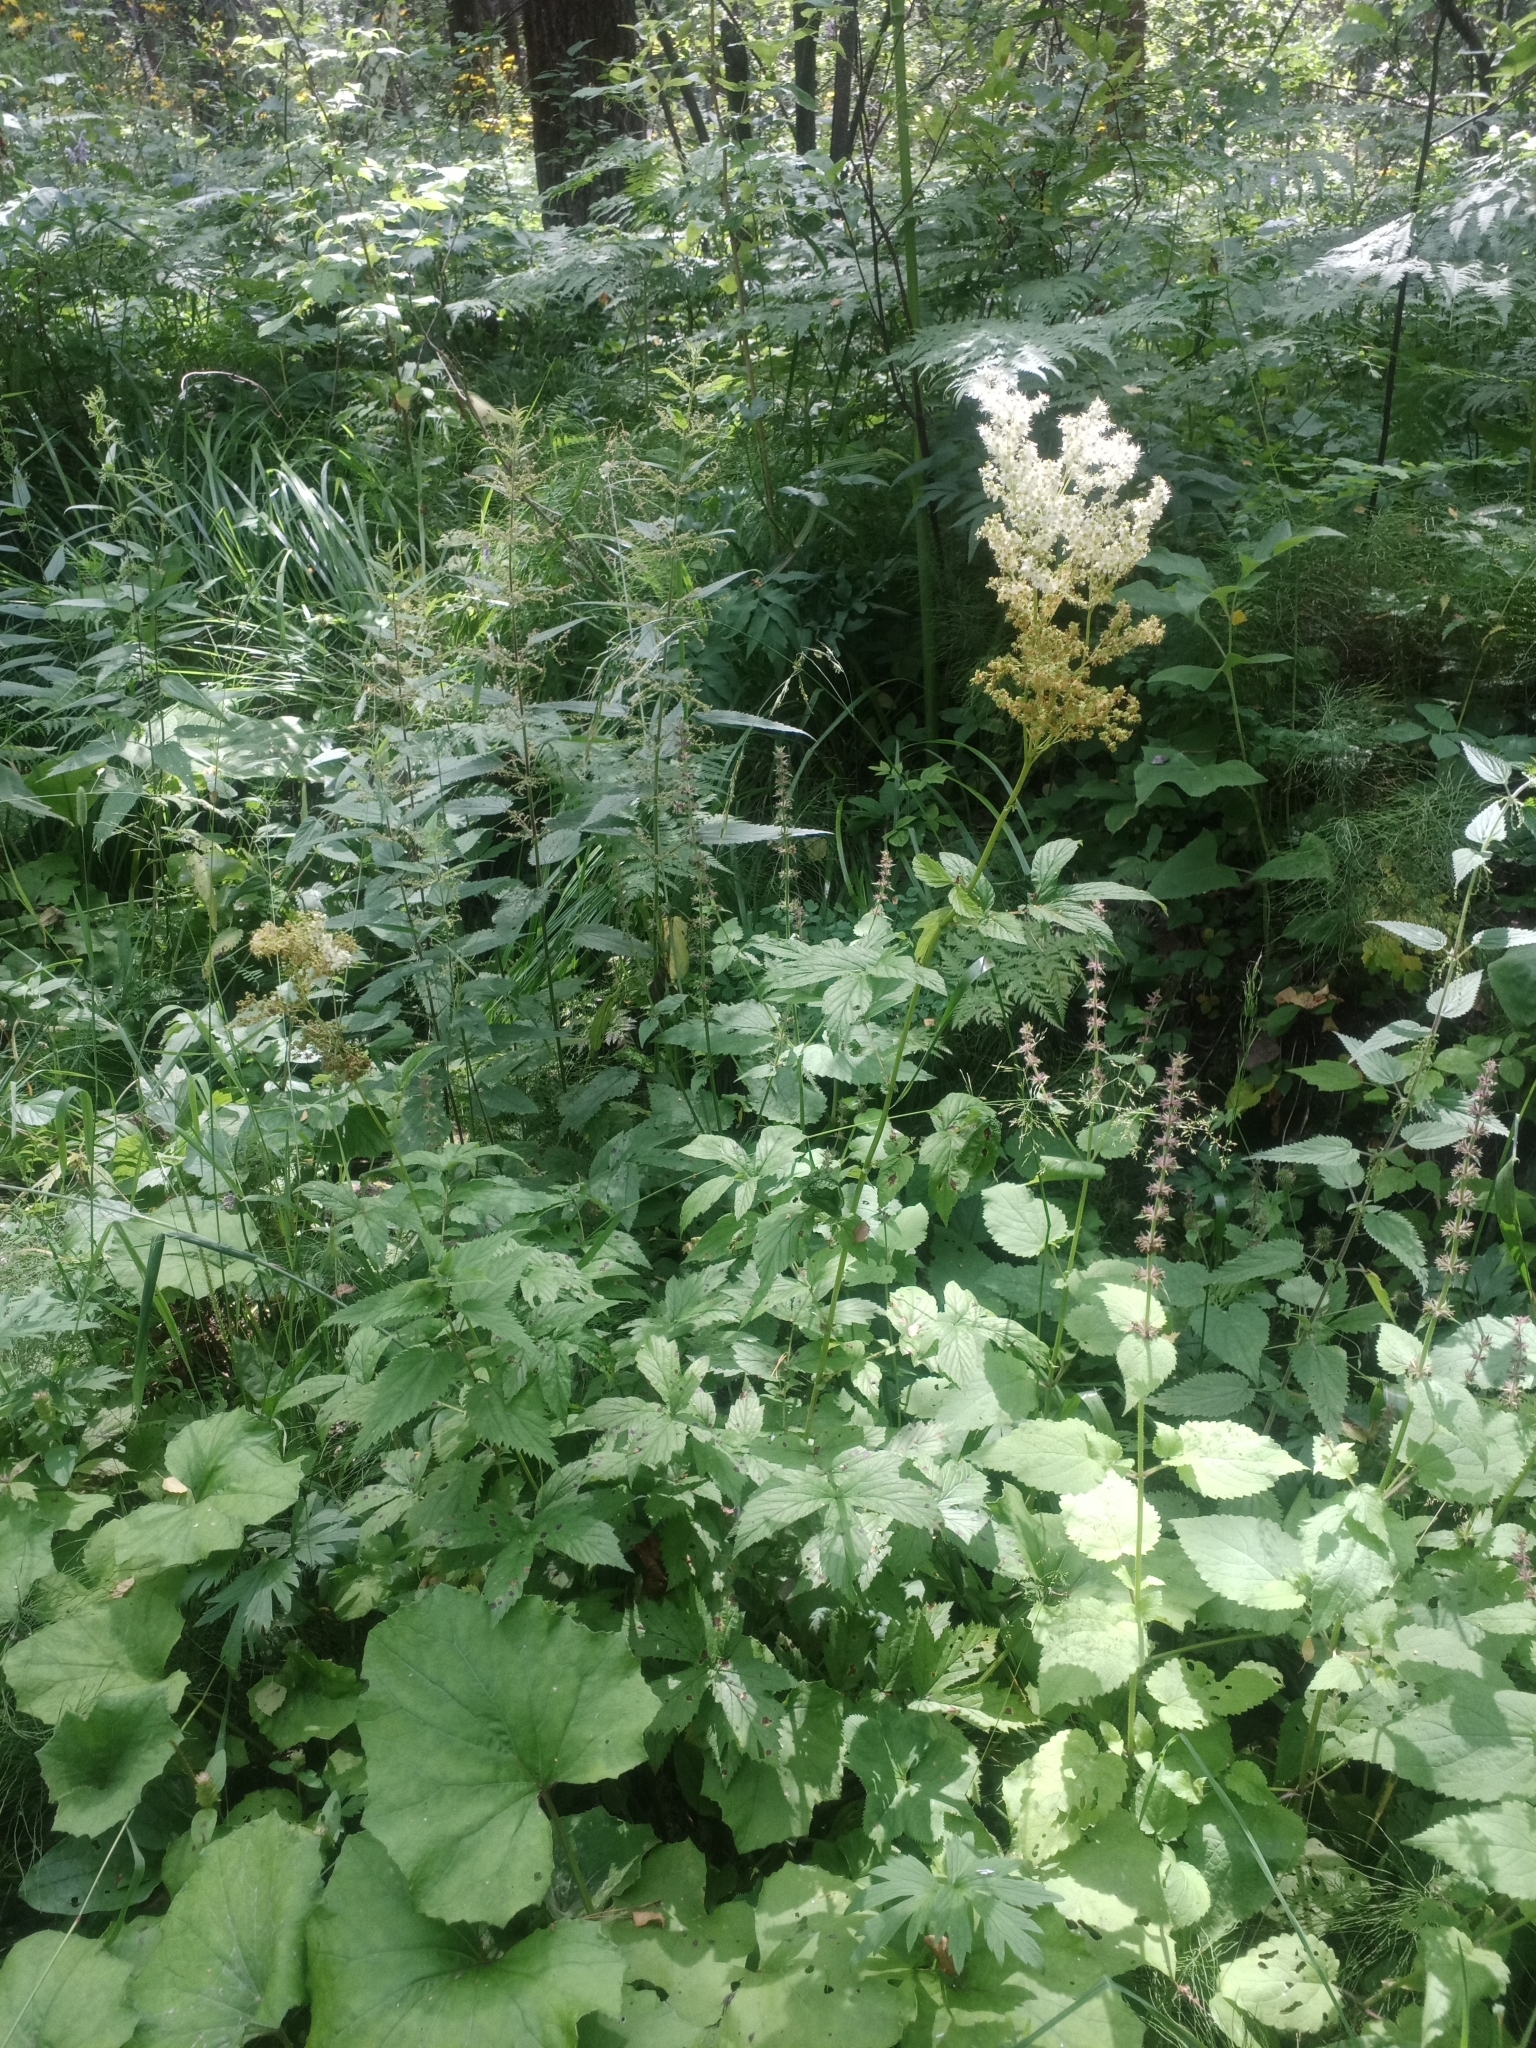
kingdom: Plantae
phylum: Tracheophyta
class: Magnoliopsida
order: Rosales
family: Rosaceae
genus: Filipendula
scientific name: Filipendula ulmaria
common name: Meadowsweet
